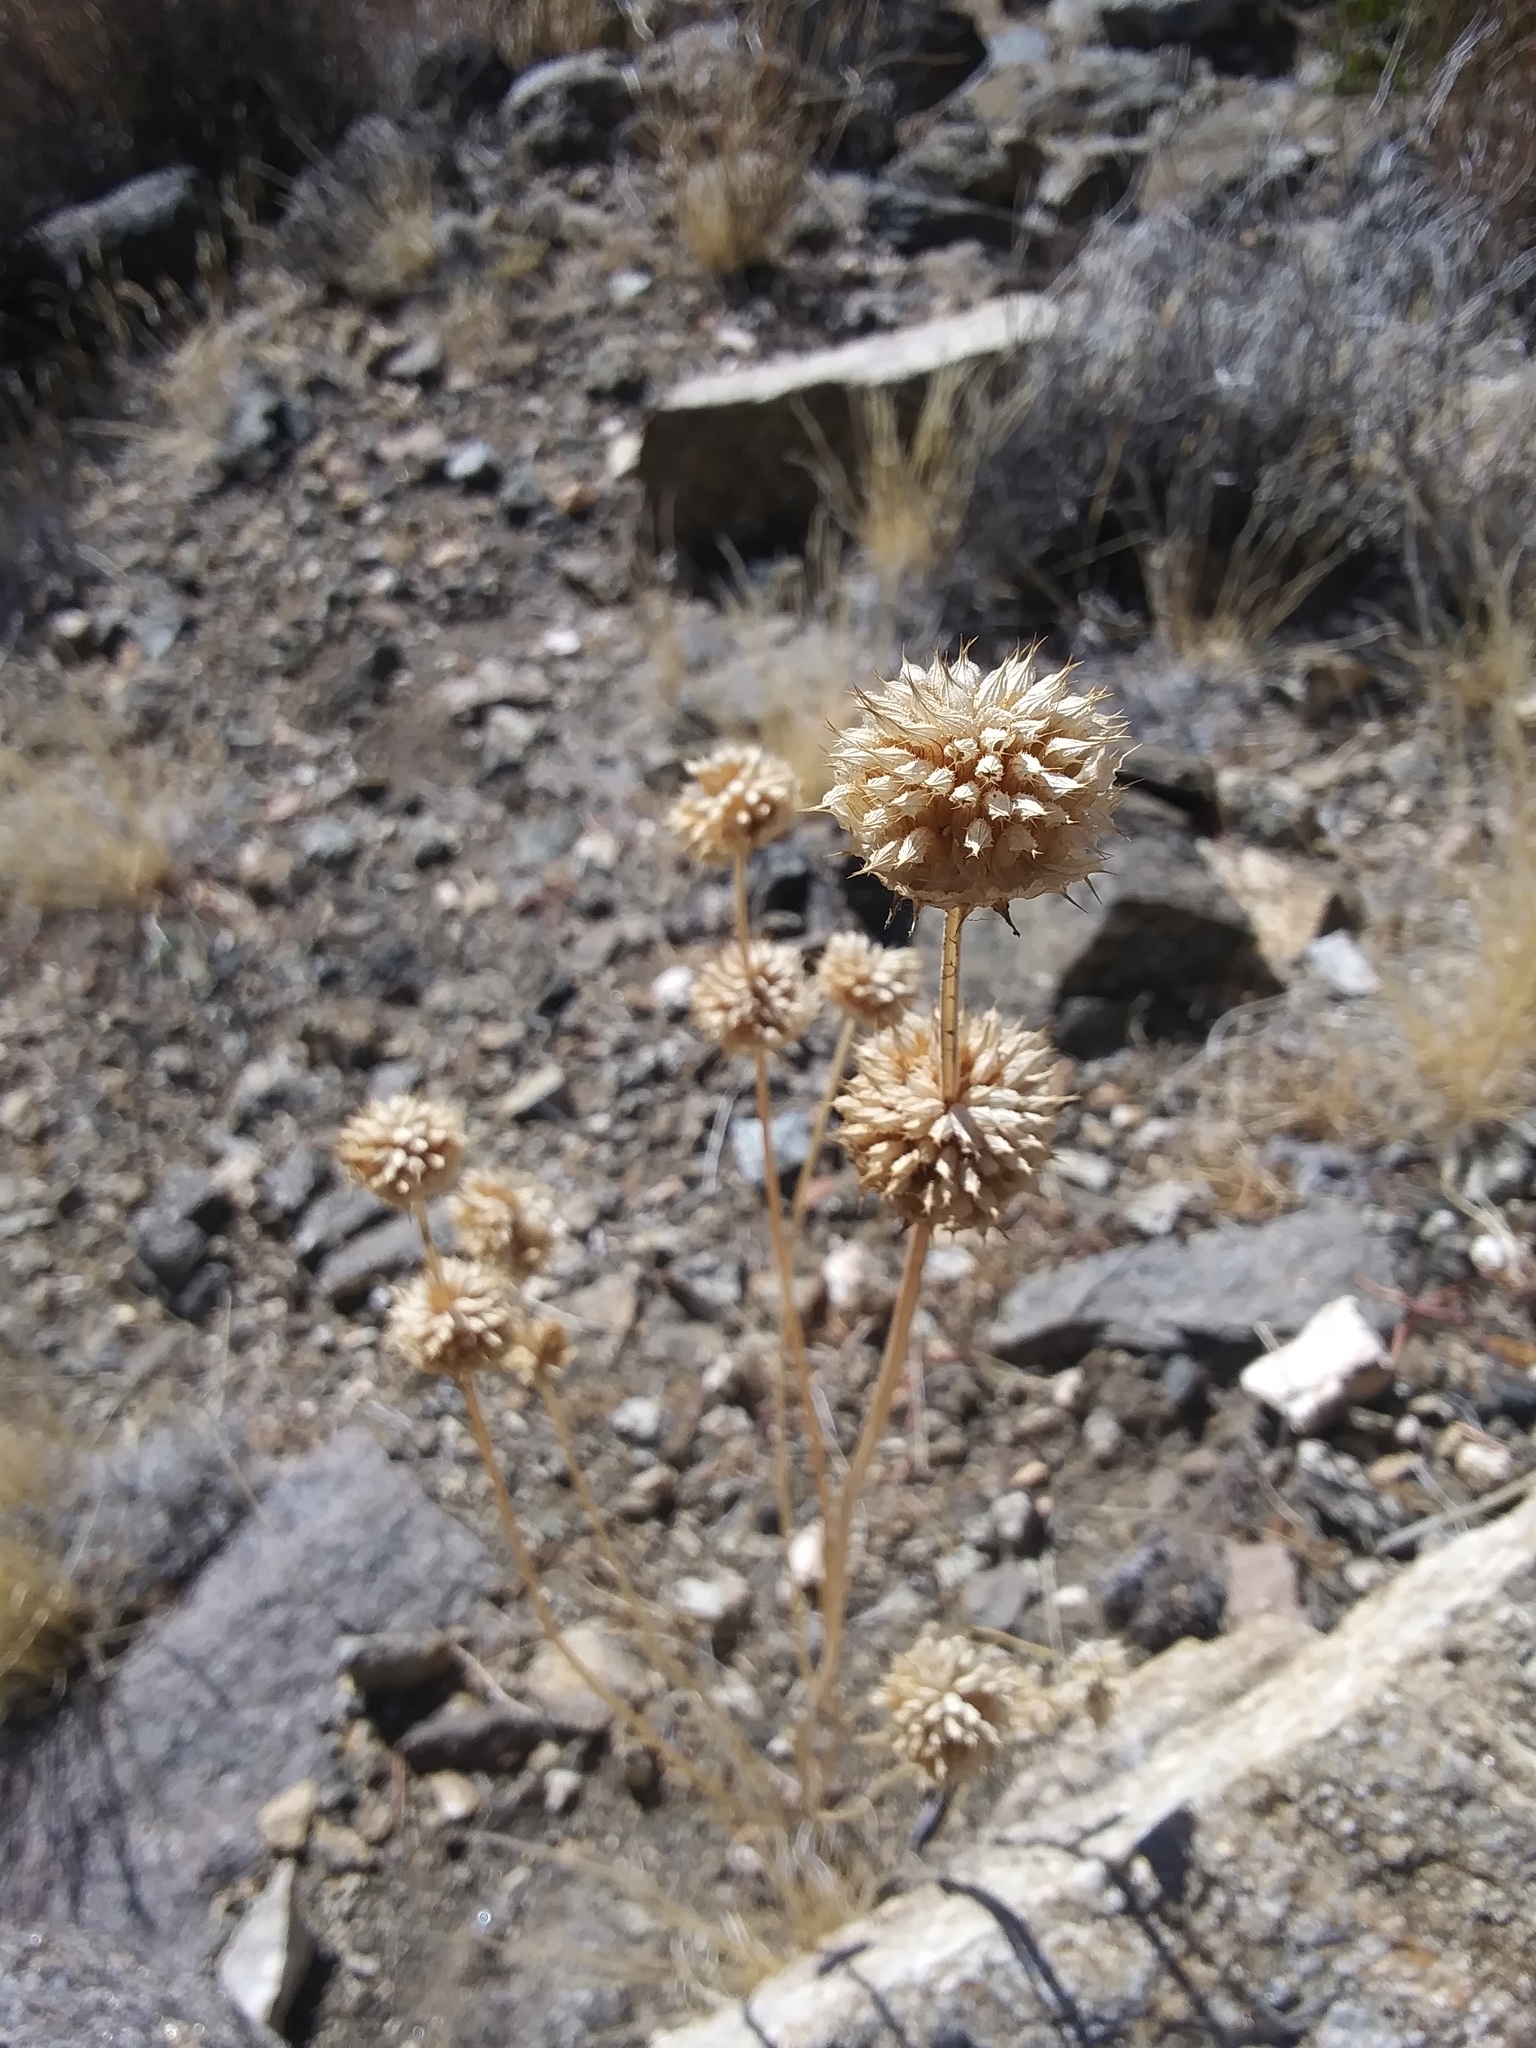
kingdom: Plantae
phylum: Tracheophyta
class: Magnoliopsida
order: Lamiales
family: Lamiaceae
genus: Salvia
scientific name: Salvia columbariae
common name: Chia
